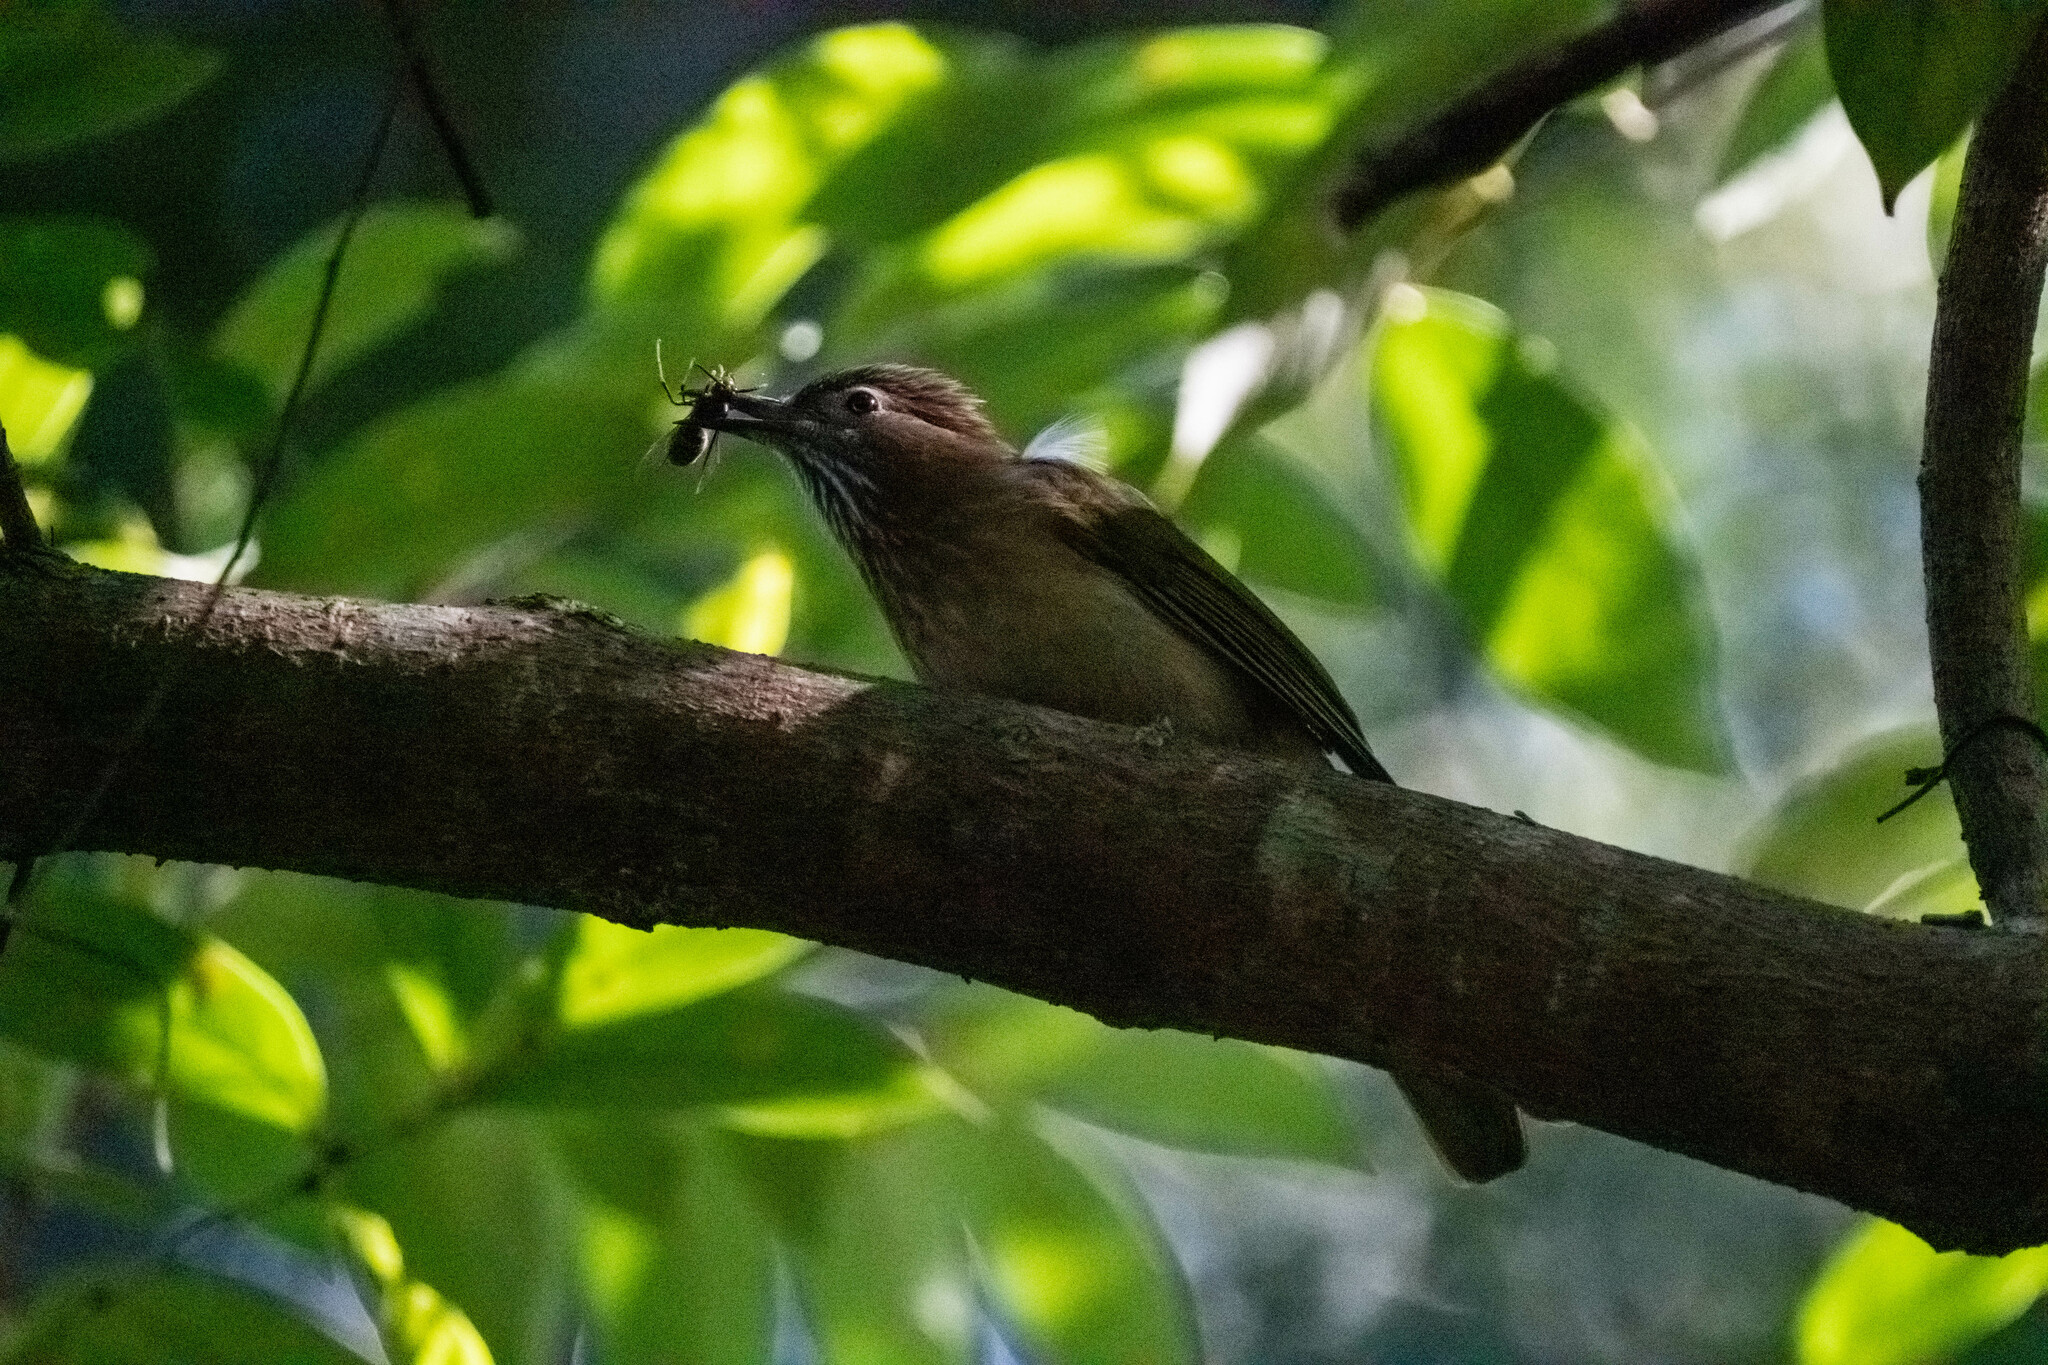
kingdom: Animalia
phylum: Chordata
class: Aves
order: Passeriformes
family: Pycnonotidae
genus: Ixos
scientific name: Ixos mcclellandii
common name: Mountain bulbul
